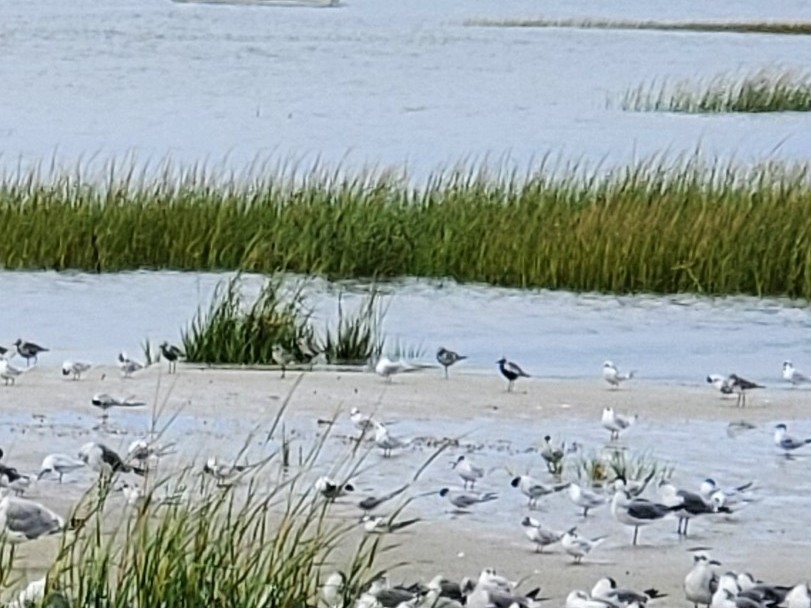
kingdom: Animalia
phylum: Chordata
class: Aves
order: Charadriiformes
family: Charadriidae
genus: Pluvialis
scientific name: Pluvialis squatarola
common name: Grey plover
